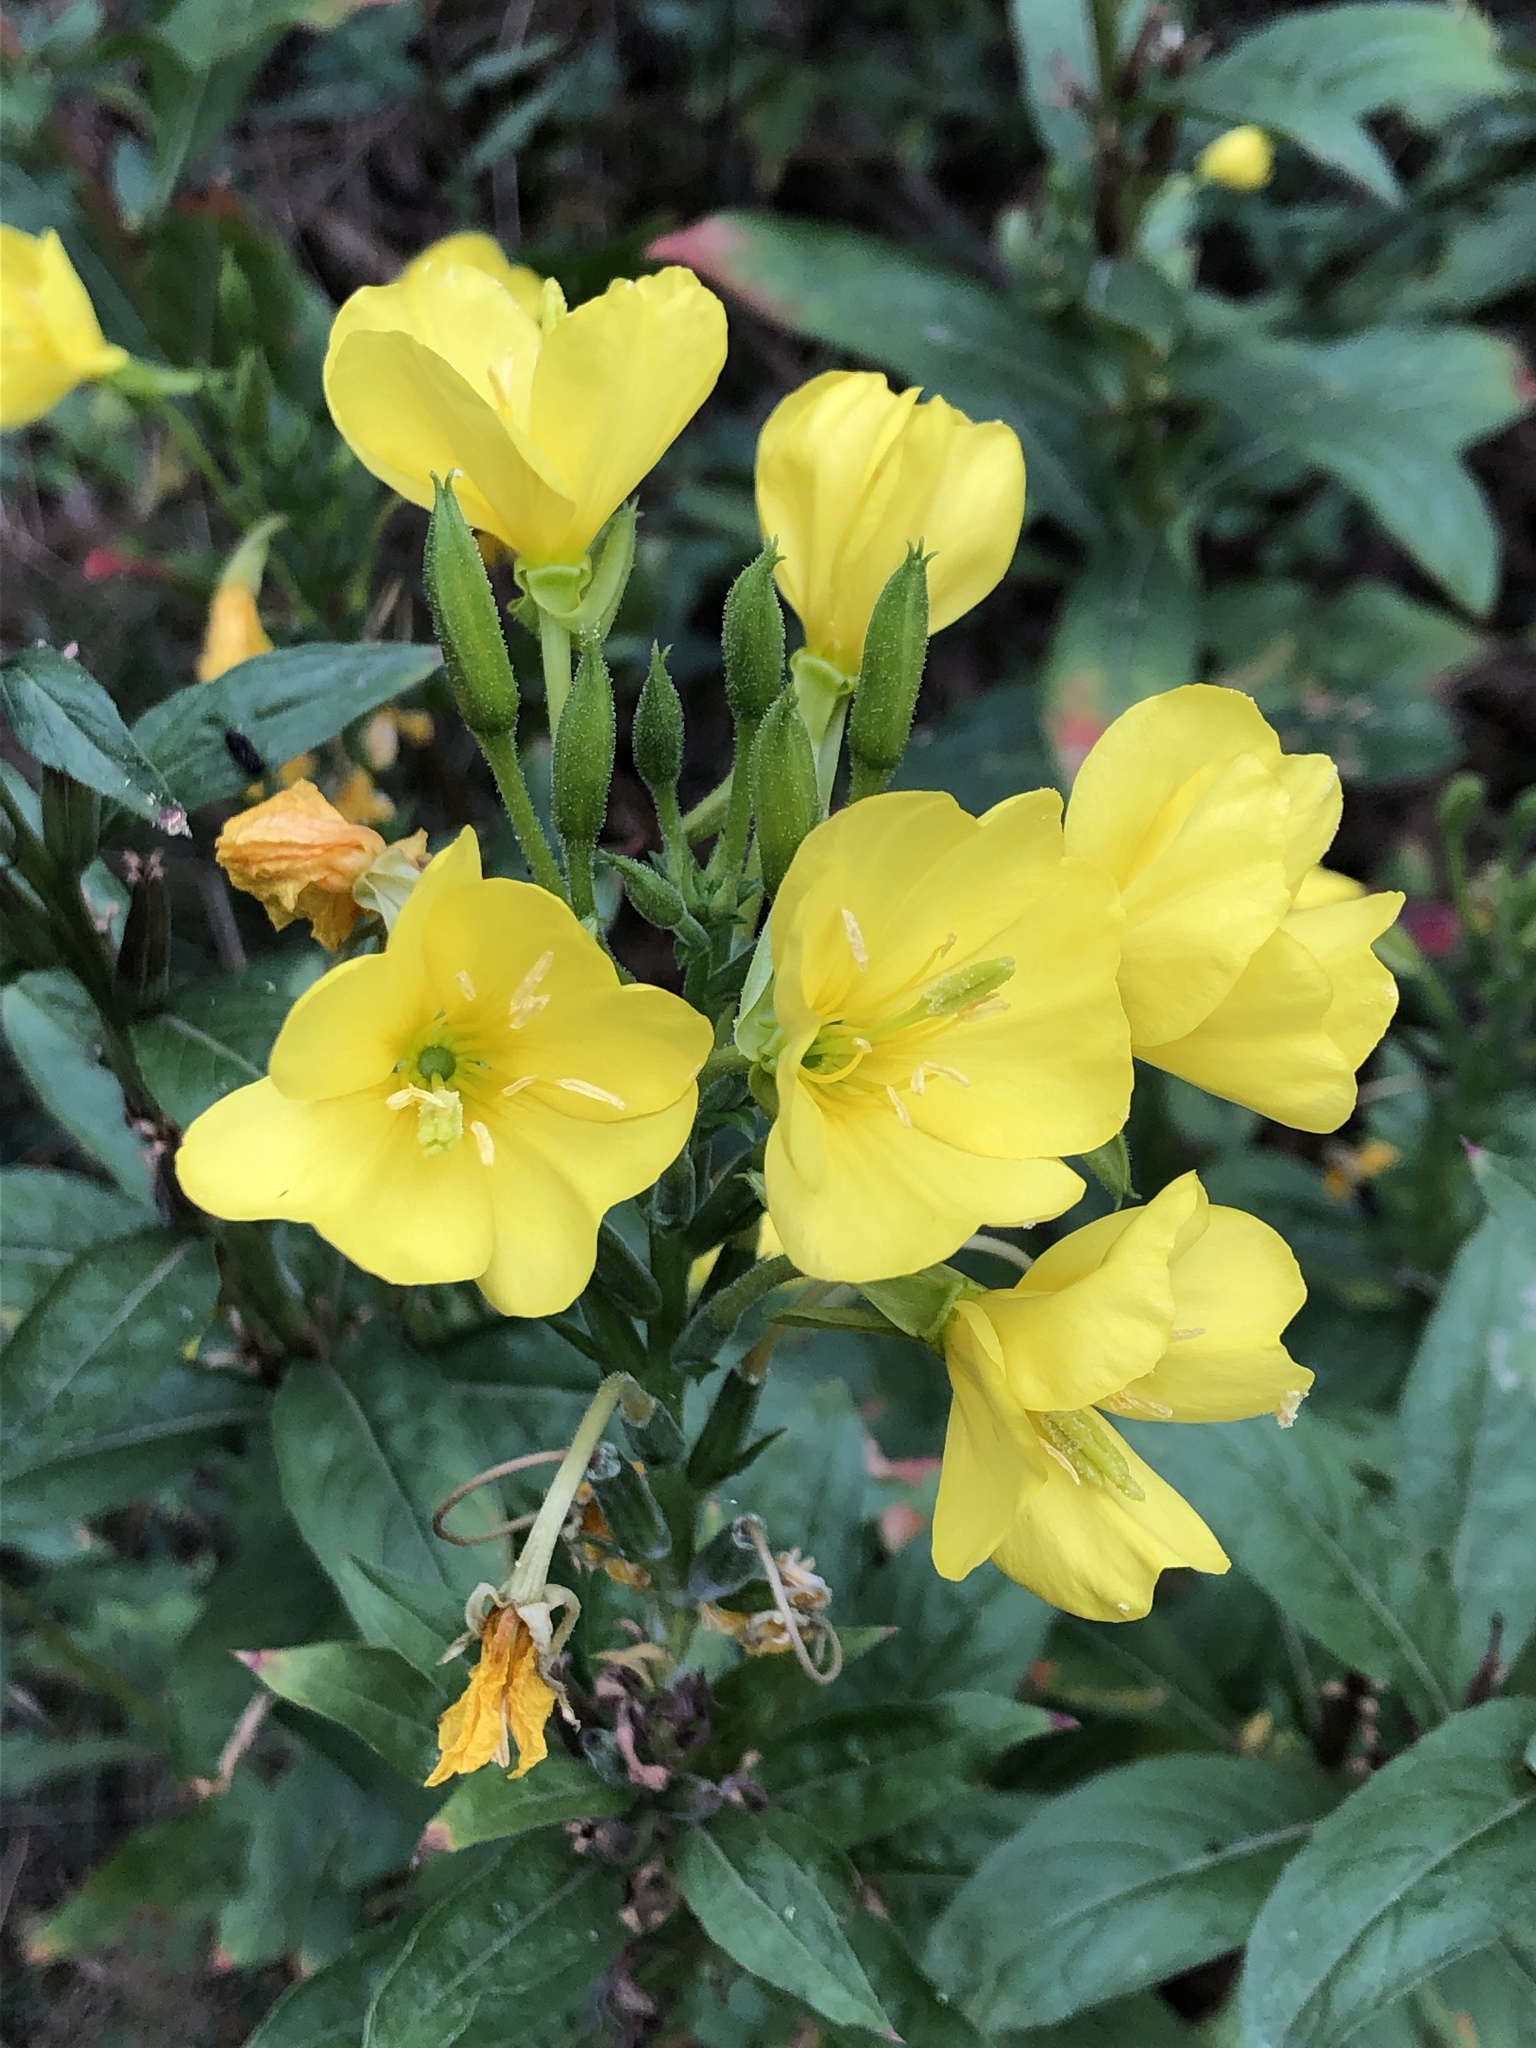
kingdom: Plantae
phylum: Tracheophyta
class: Magnoliopsida
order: Myrtales
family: Onagraceae
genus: Oenothera
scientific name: Oenothera biennis
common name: Common evening-primrose
